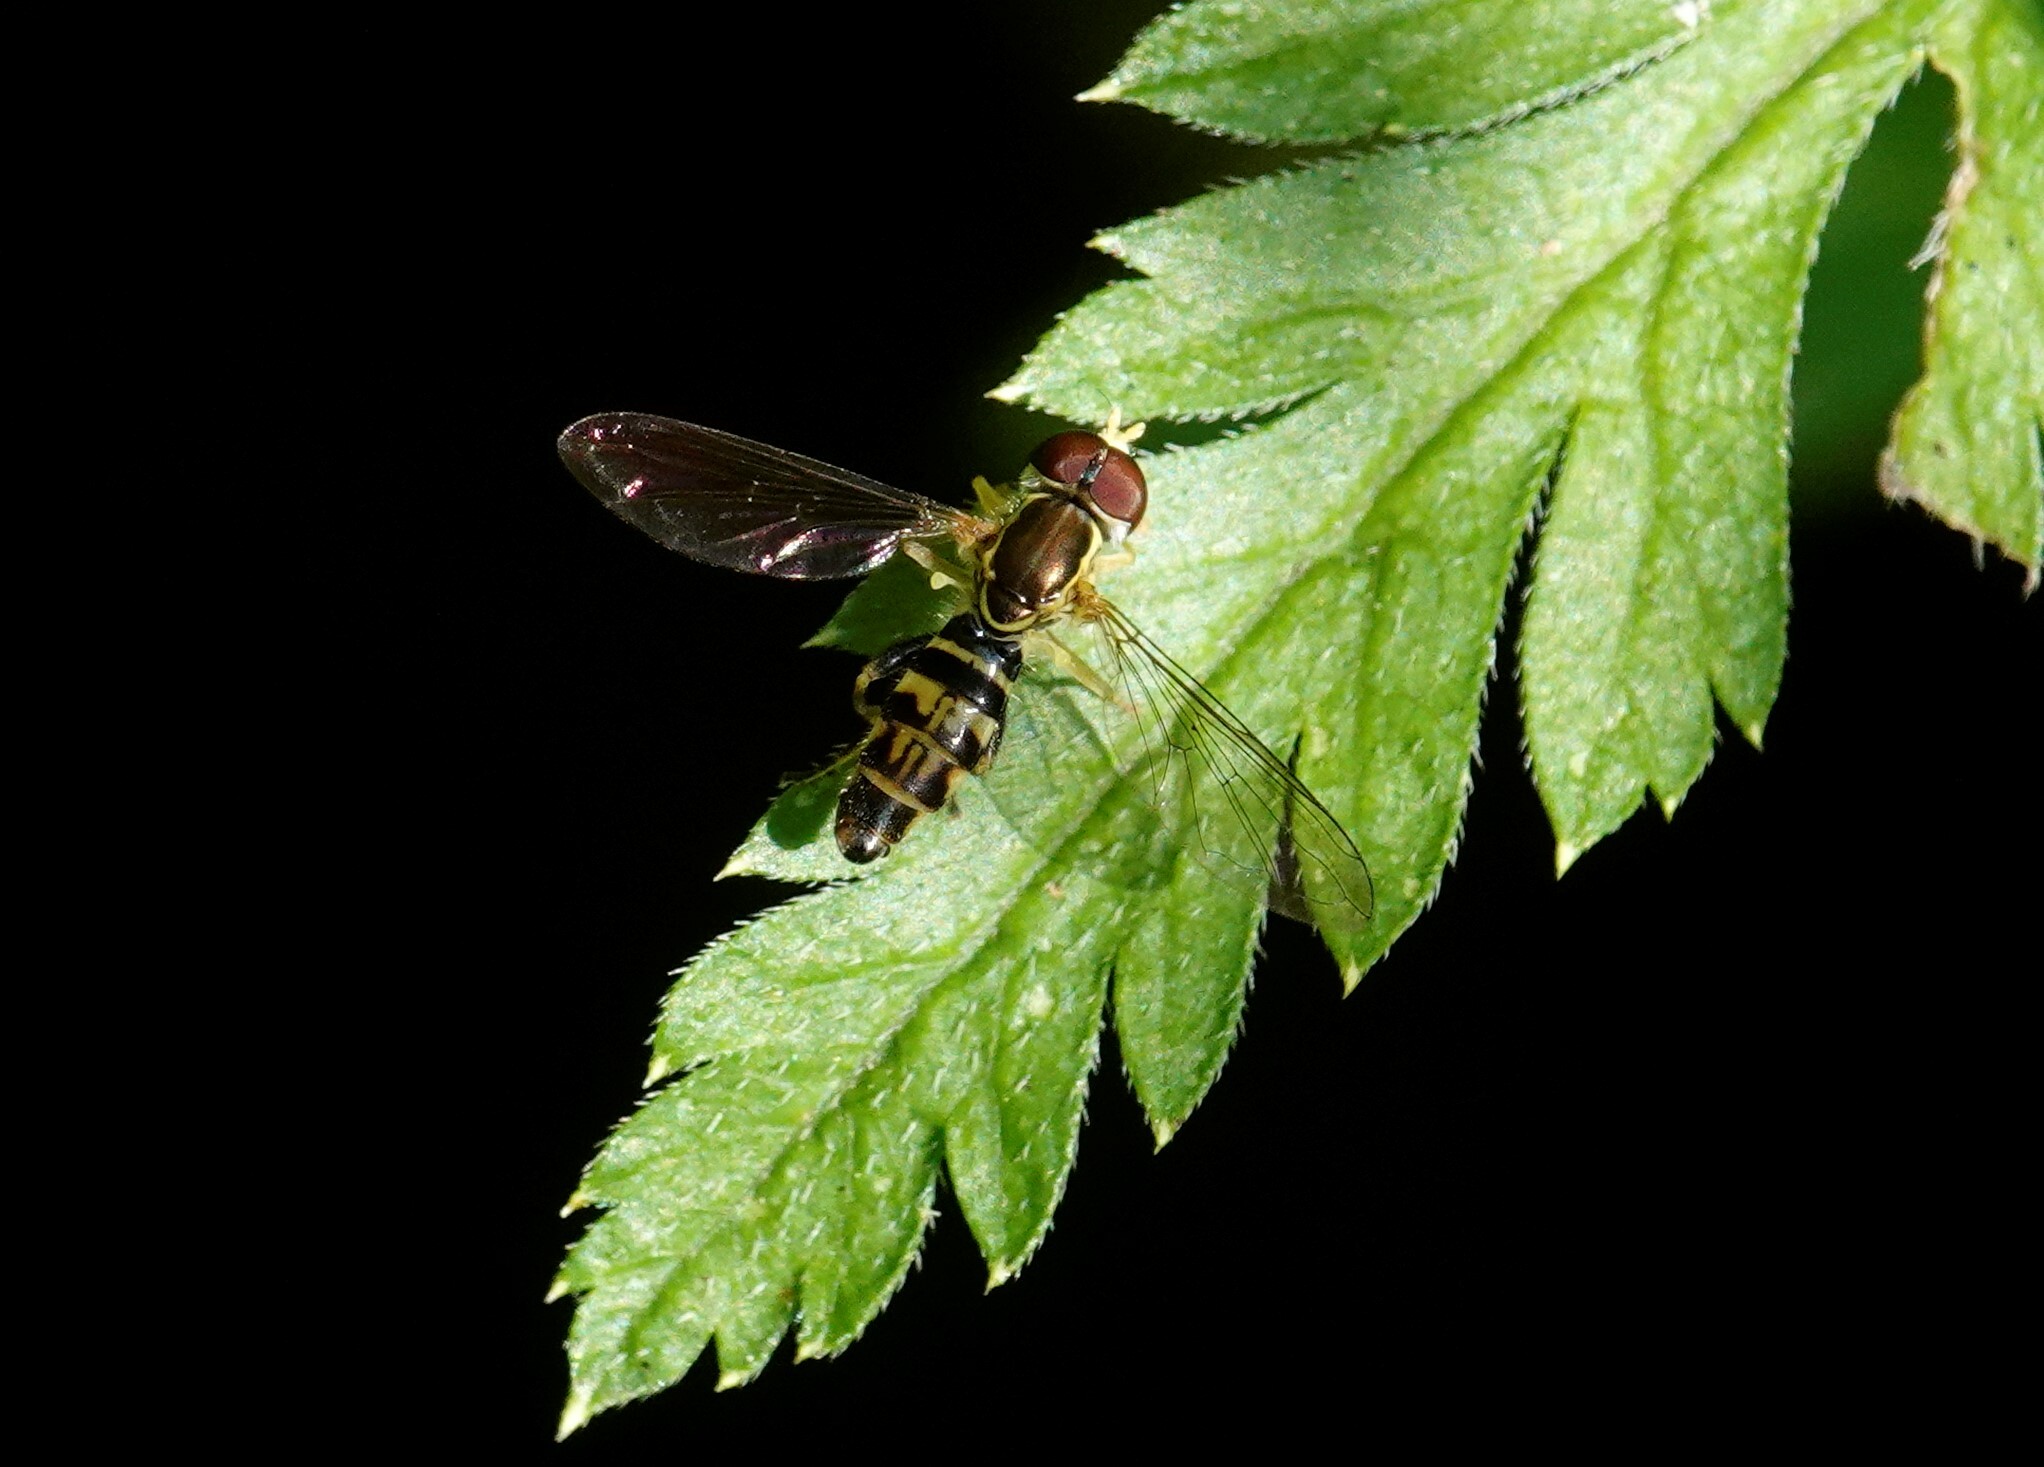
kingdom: Animalia
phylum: Arthropoda
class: Insecta
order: Diptera
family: Syrphidae
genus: Toxomerus
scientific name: Toxomerus geminatus
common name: Eastern calligrapher
